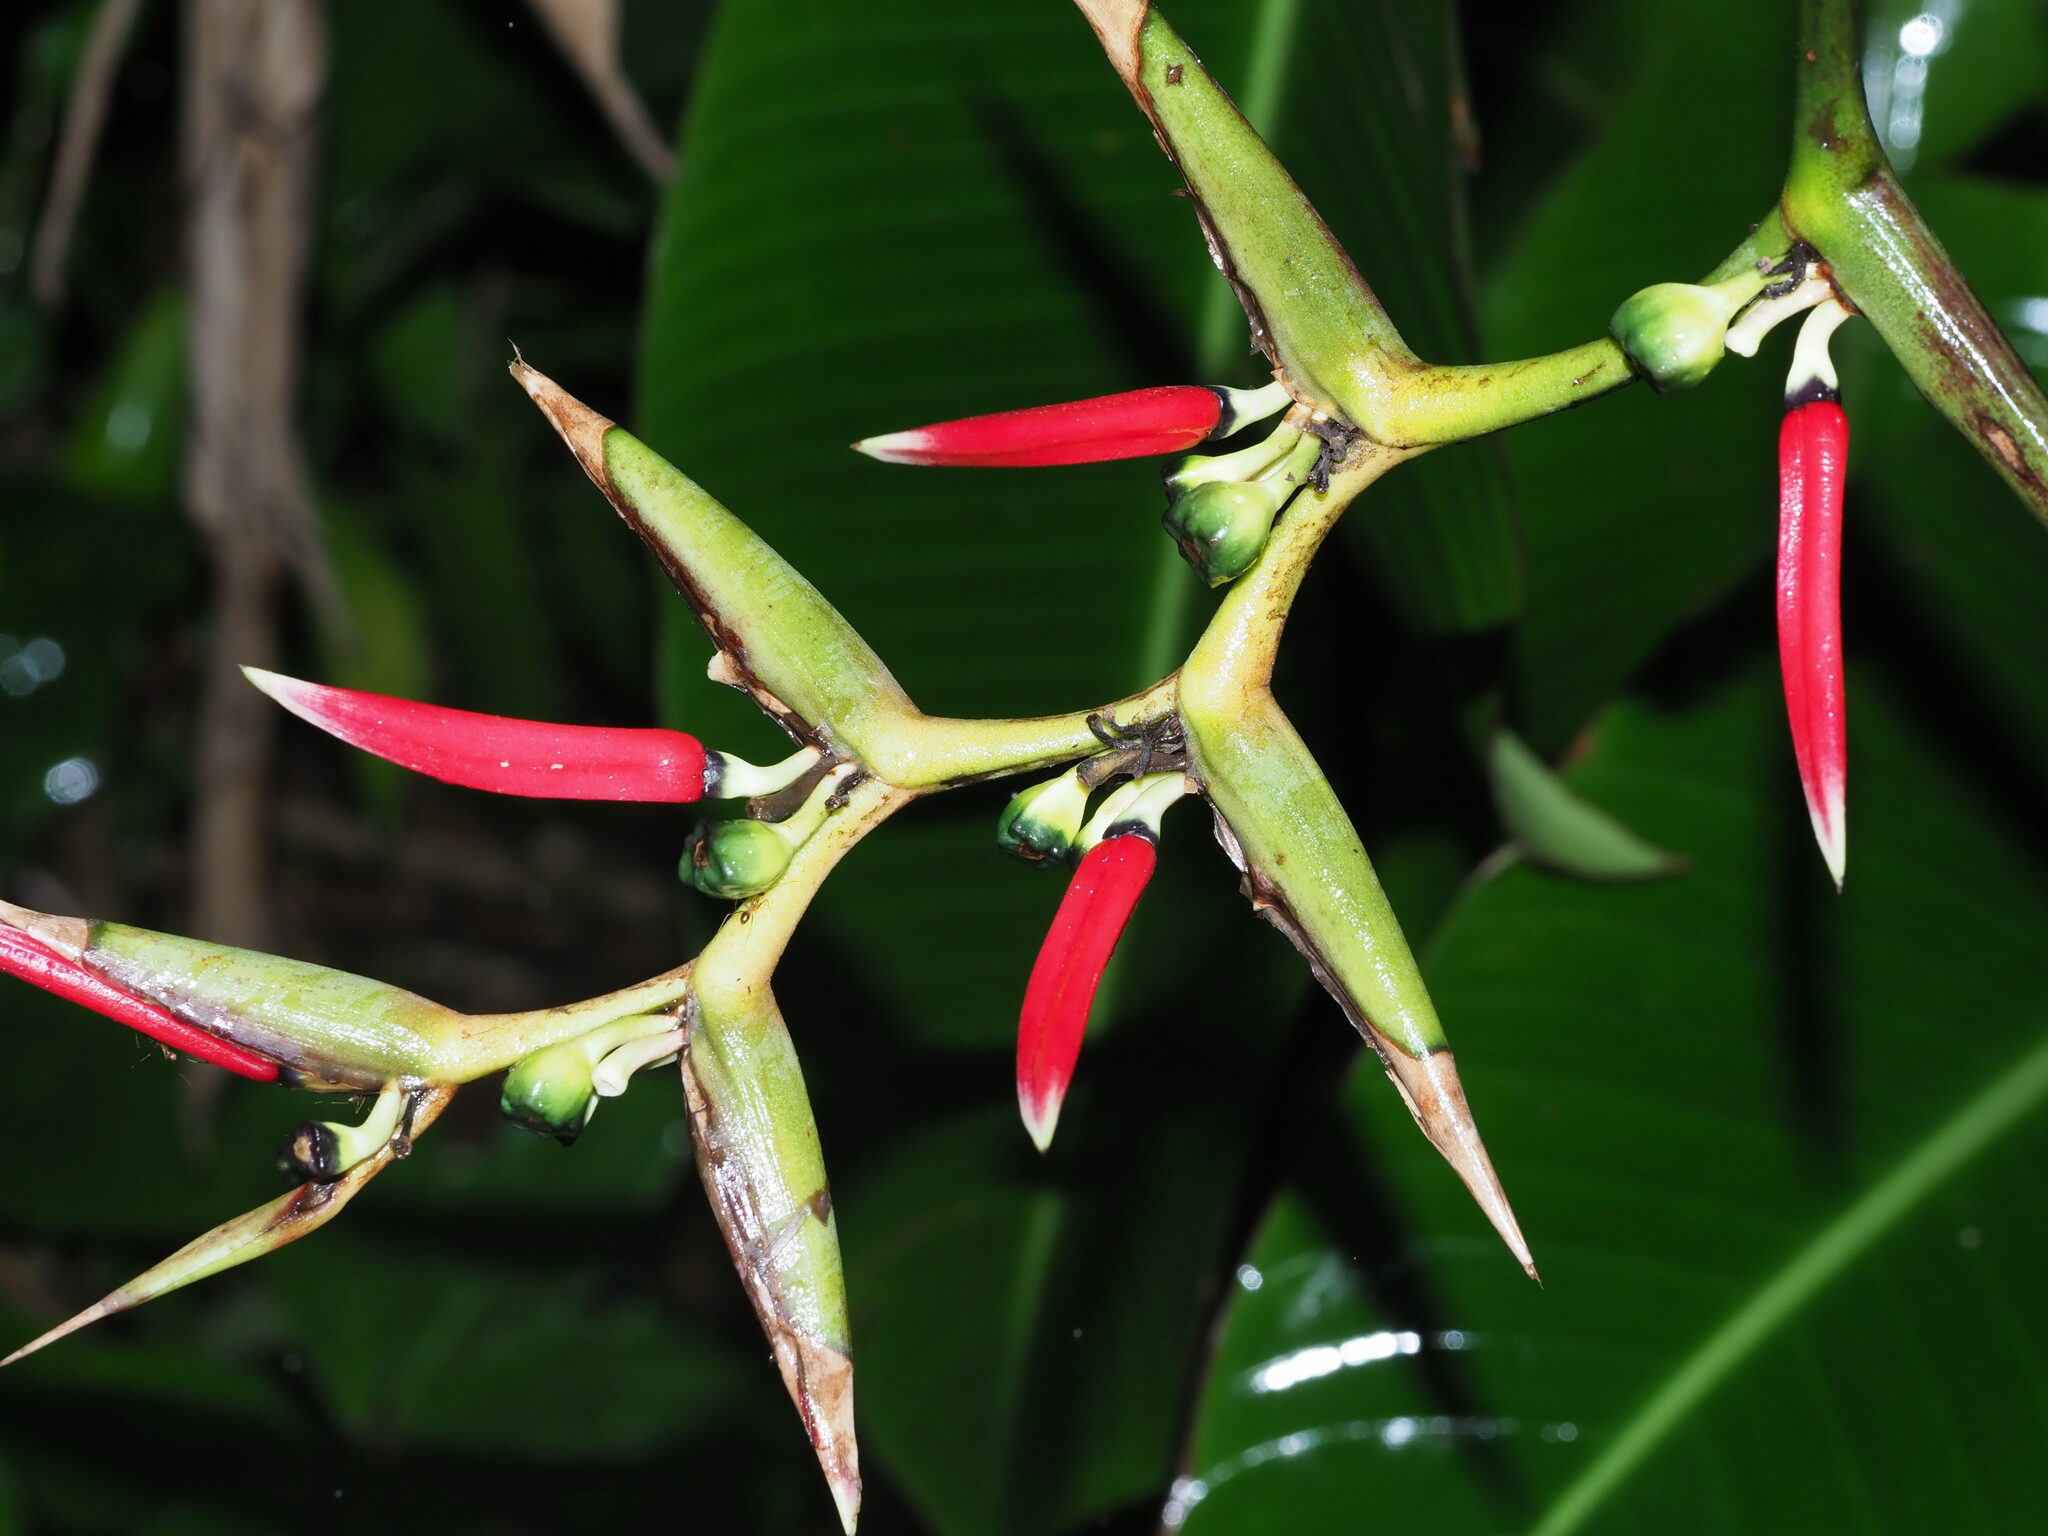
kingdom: Plantae
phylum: Tracheophyta
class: Liliopsida
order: Zingiberales
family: Heliconiaceae
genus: Heliconia
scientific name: Heliconia metallica
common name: Shining bird of paradise
